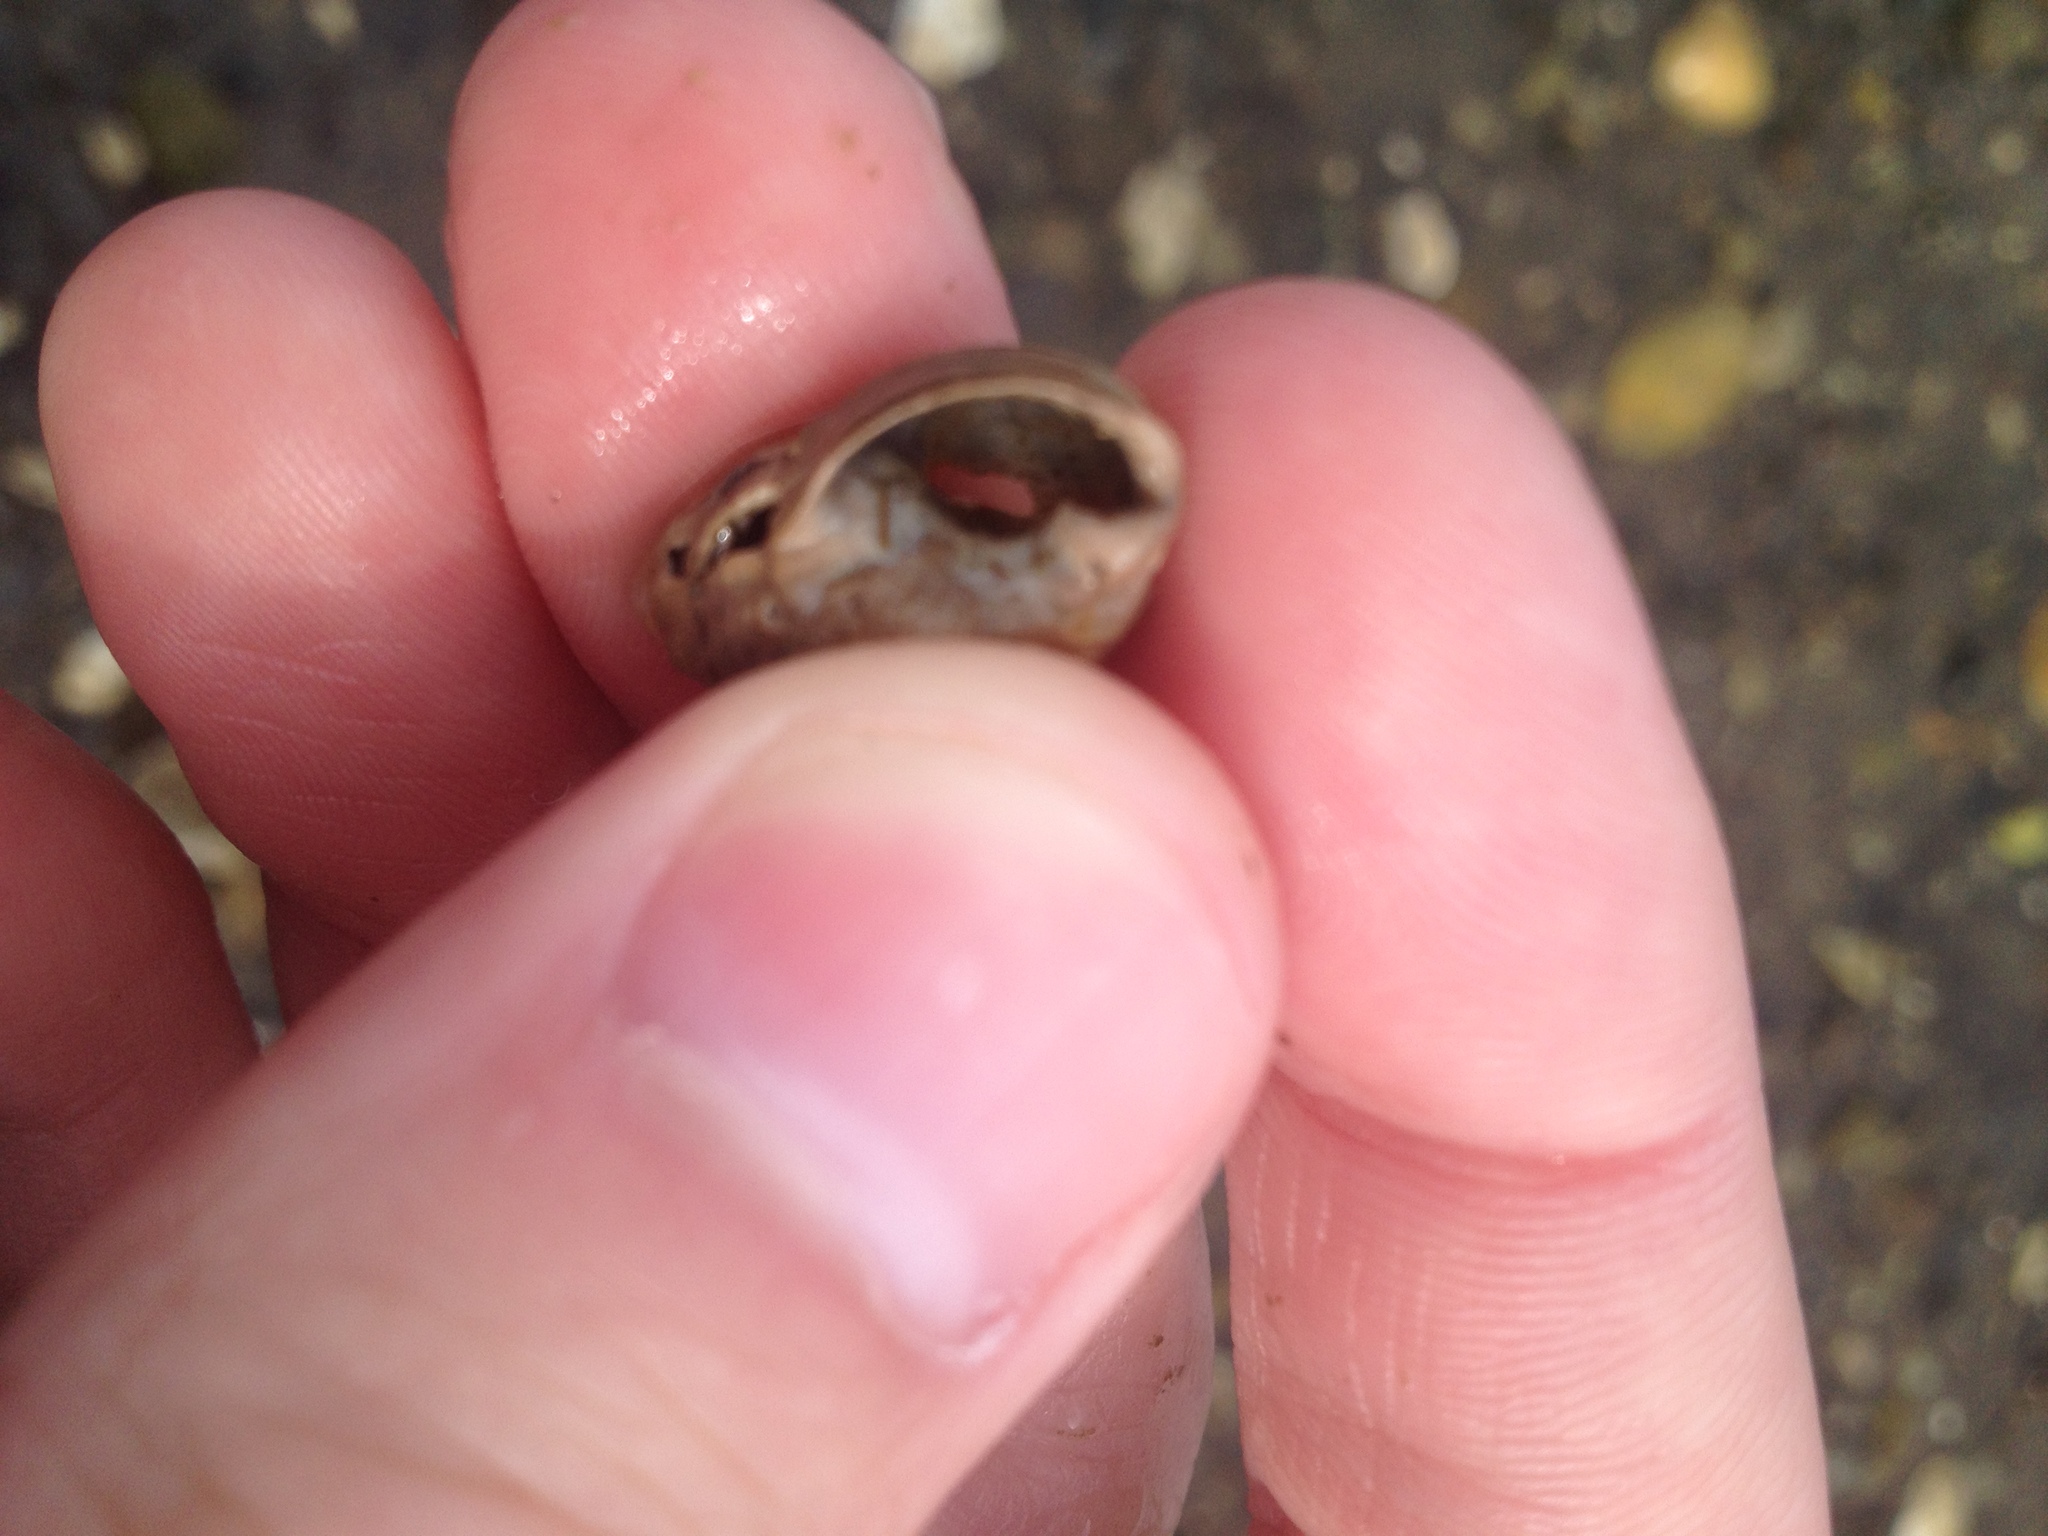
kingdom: Animalia
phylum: Mollusca
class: Gastropoda
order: Neogastropoda
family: Nassariidae
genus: Ilyanassa
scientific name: Ilyanassa obsoleta
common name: Eastern mudsnail
